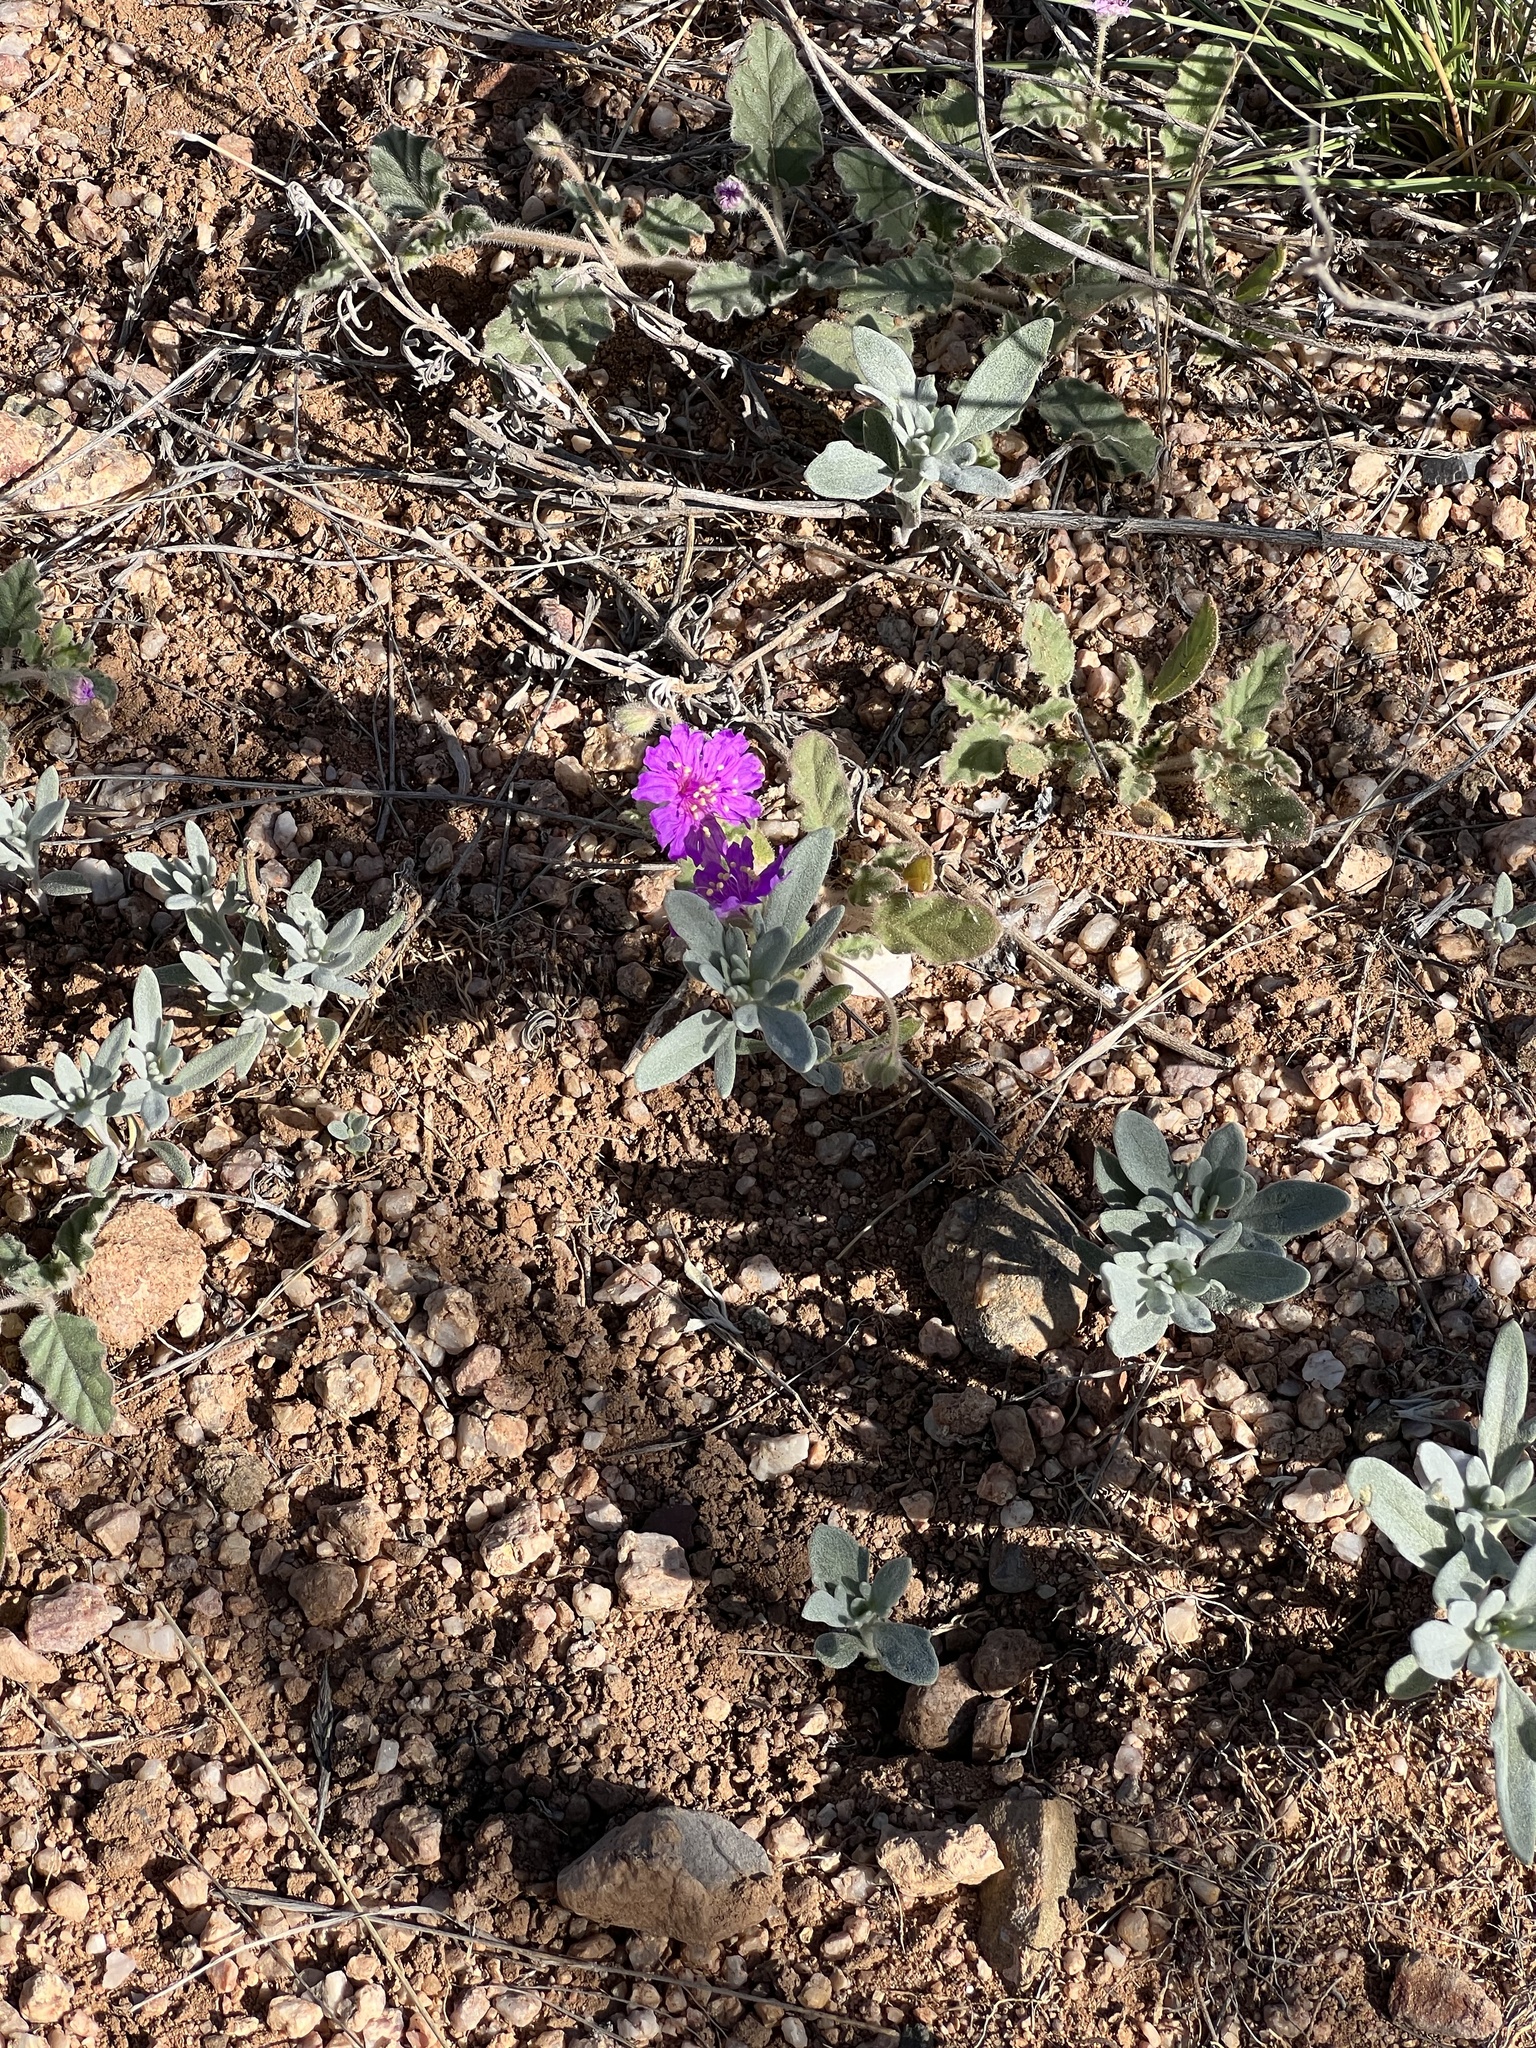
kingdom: Plantae
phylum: Tracheophyta
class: Magnoliopsida
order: Caryophyllales
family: Nyctaginaceae
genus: Allionia
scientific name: Allionia incarnata
